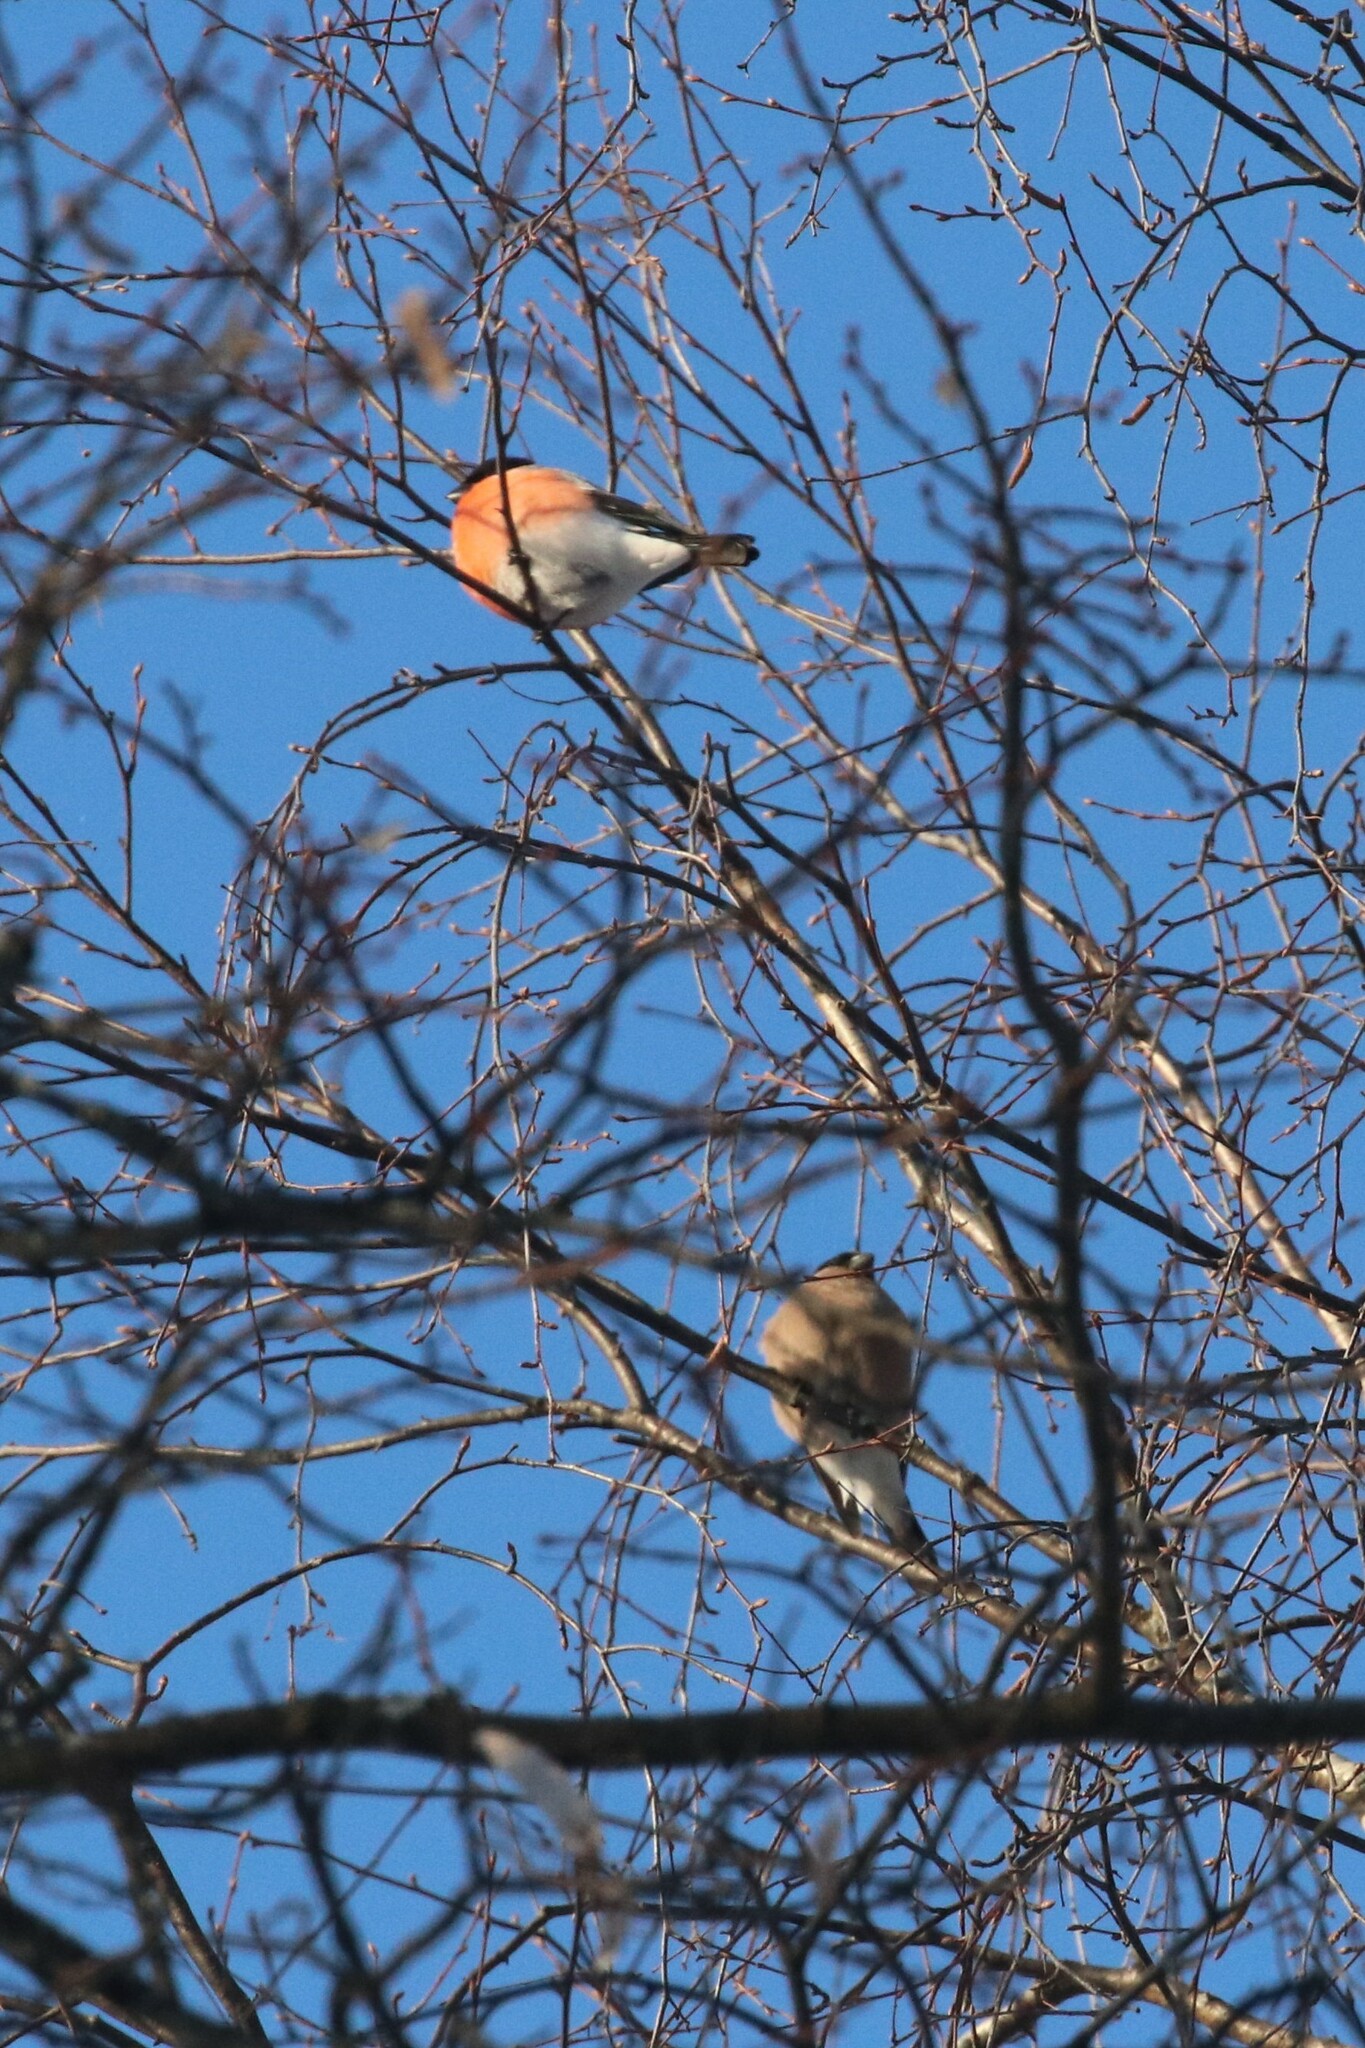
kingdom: Animalia
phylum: Chordata
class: Aves
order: Passeriformes
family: Fringillidae
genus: Pyrrhula
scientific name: Pyrrhula pyrrhula
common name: Eurasian bullfinch
